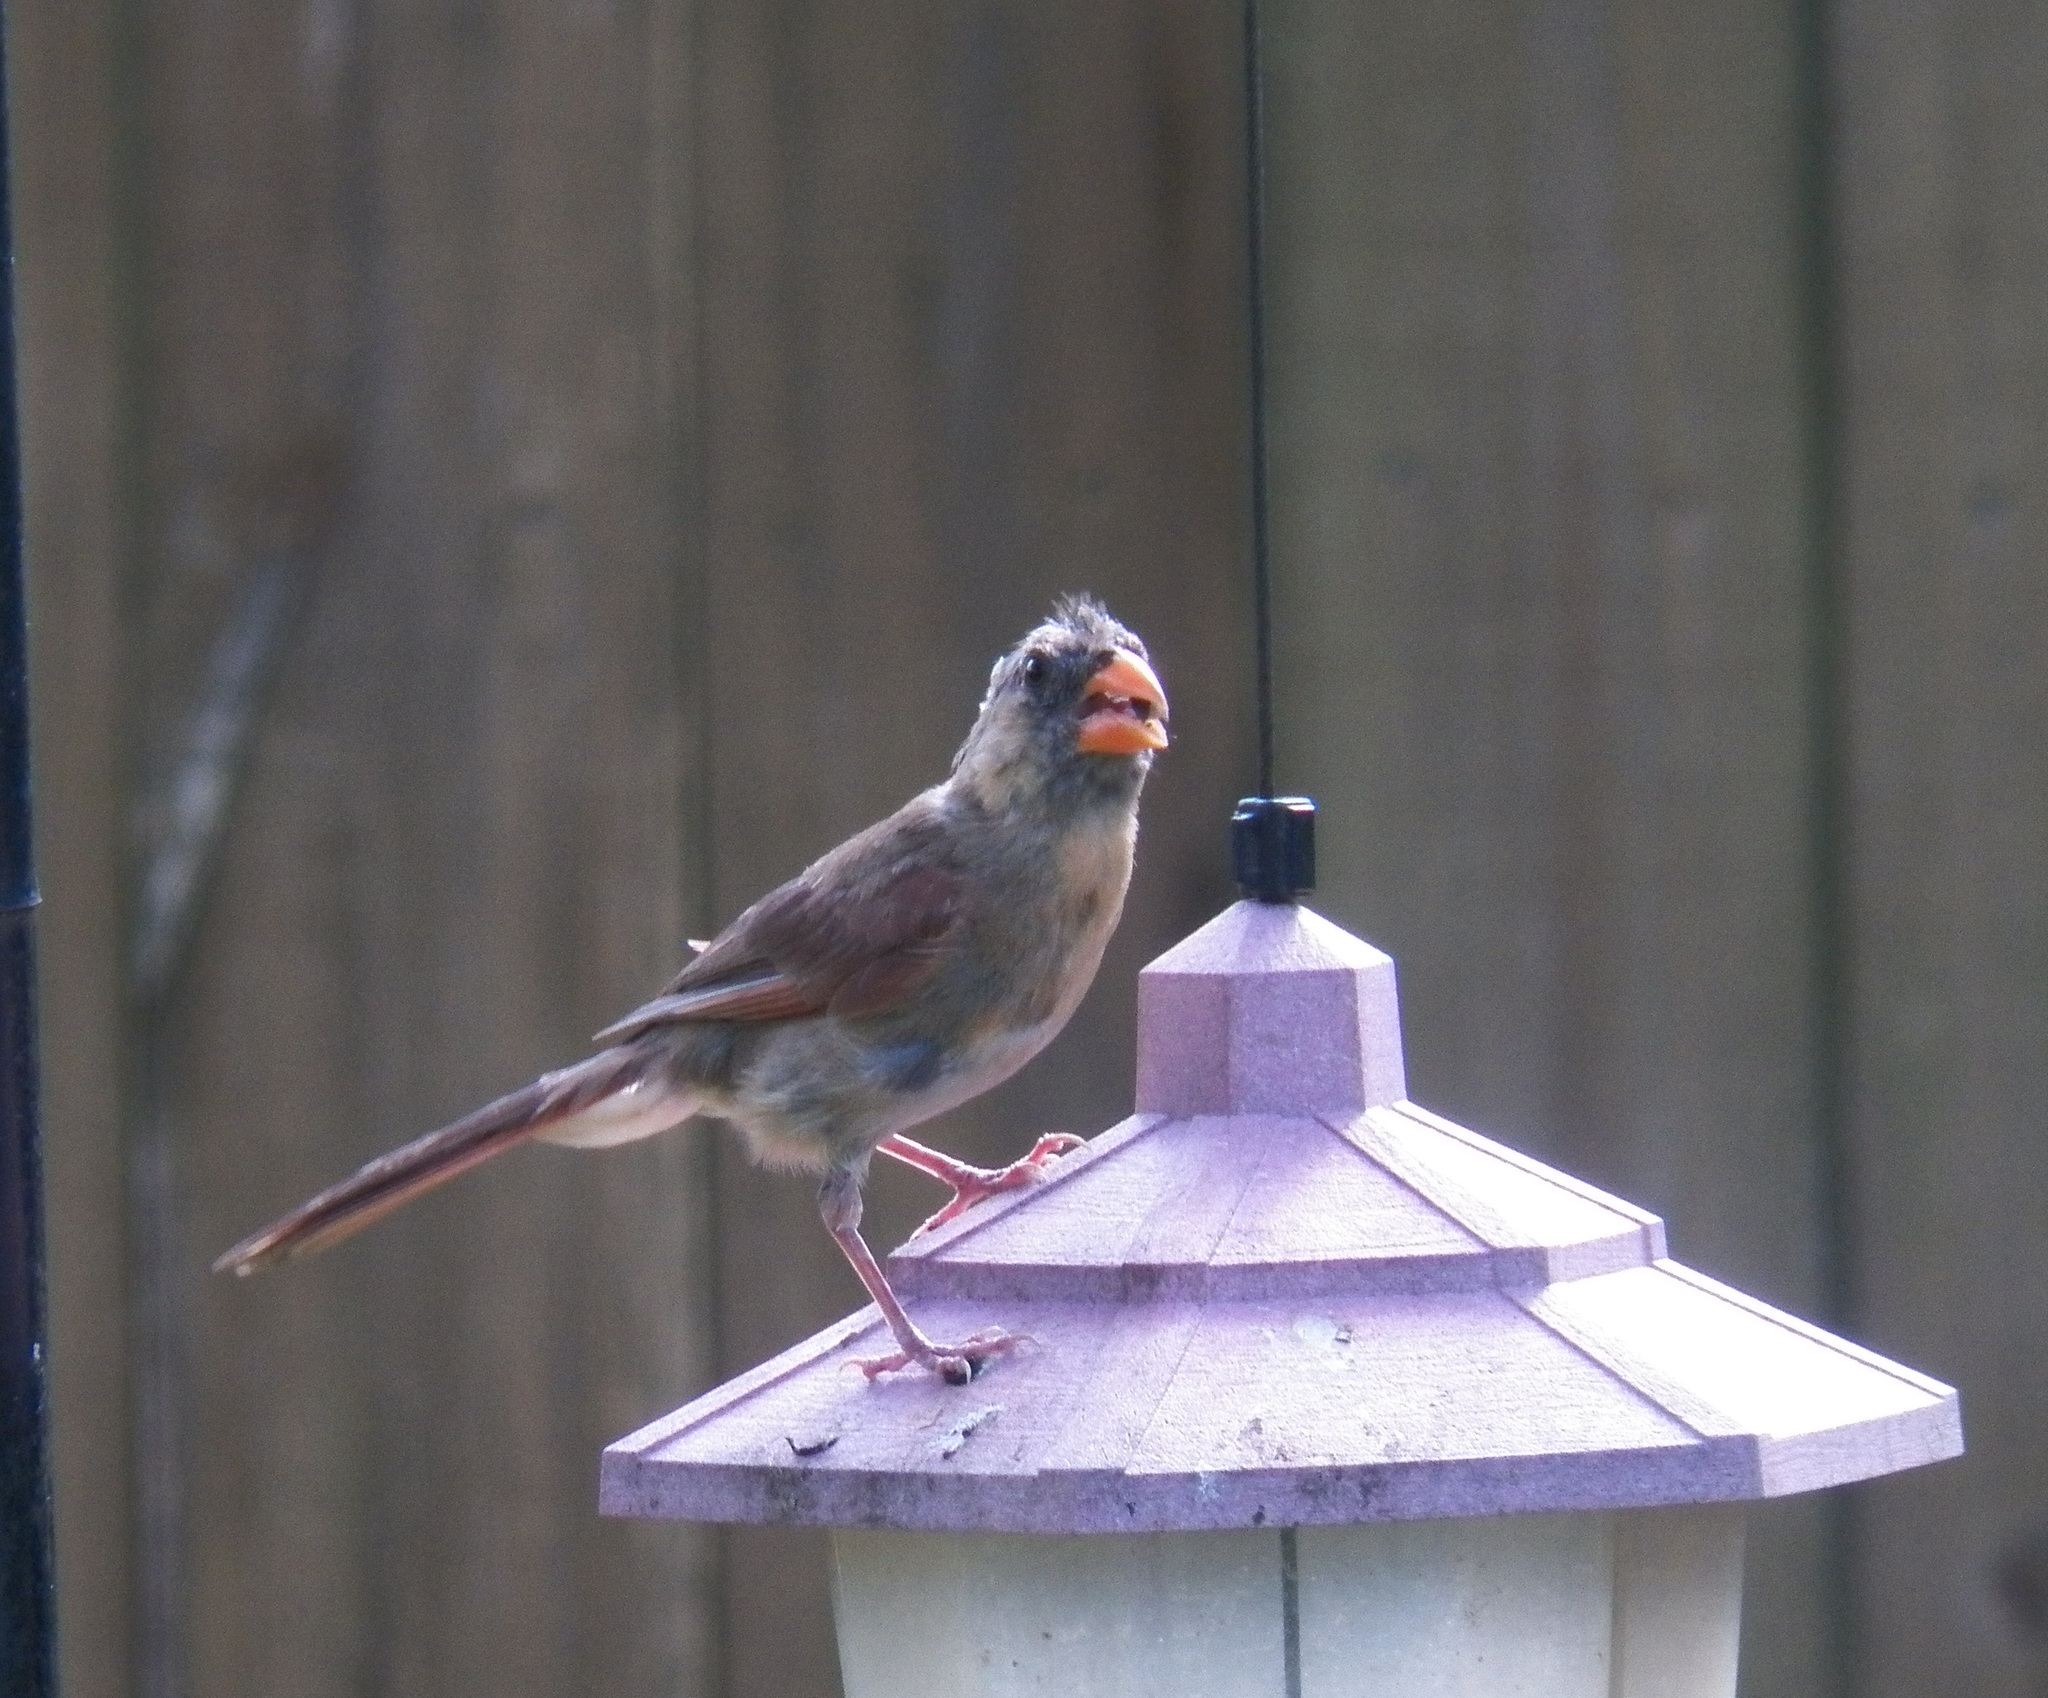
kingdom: Animalia
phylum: Chordata
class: Aves
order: Passeriformes
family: Cardinalidae
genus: Cardinalis
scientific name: Cardinalis cardinalis
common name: Northern cardinal
